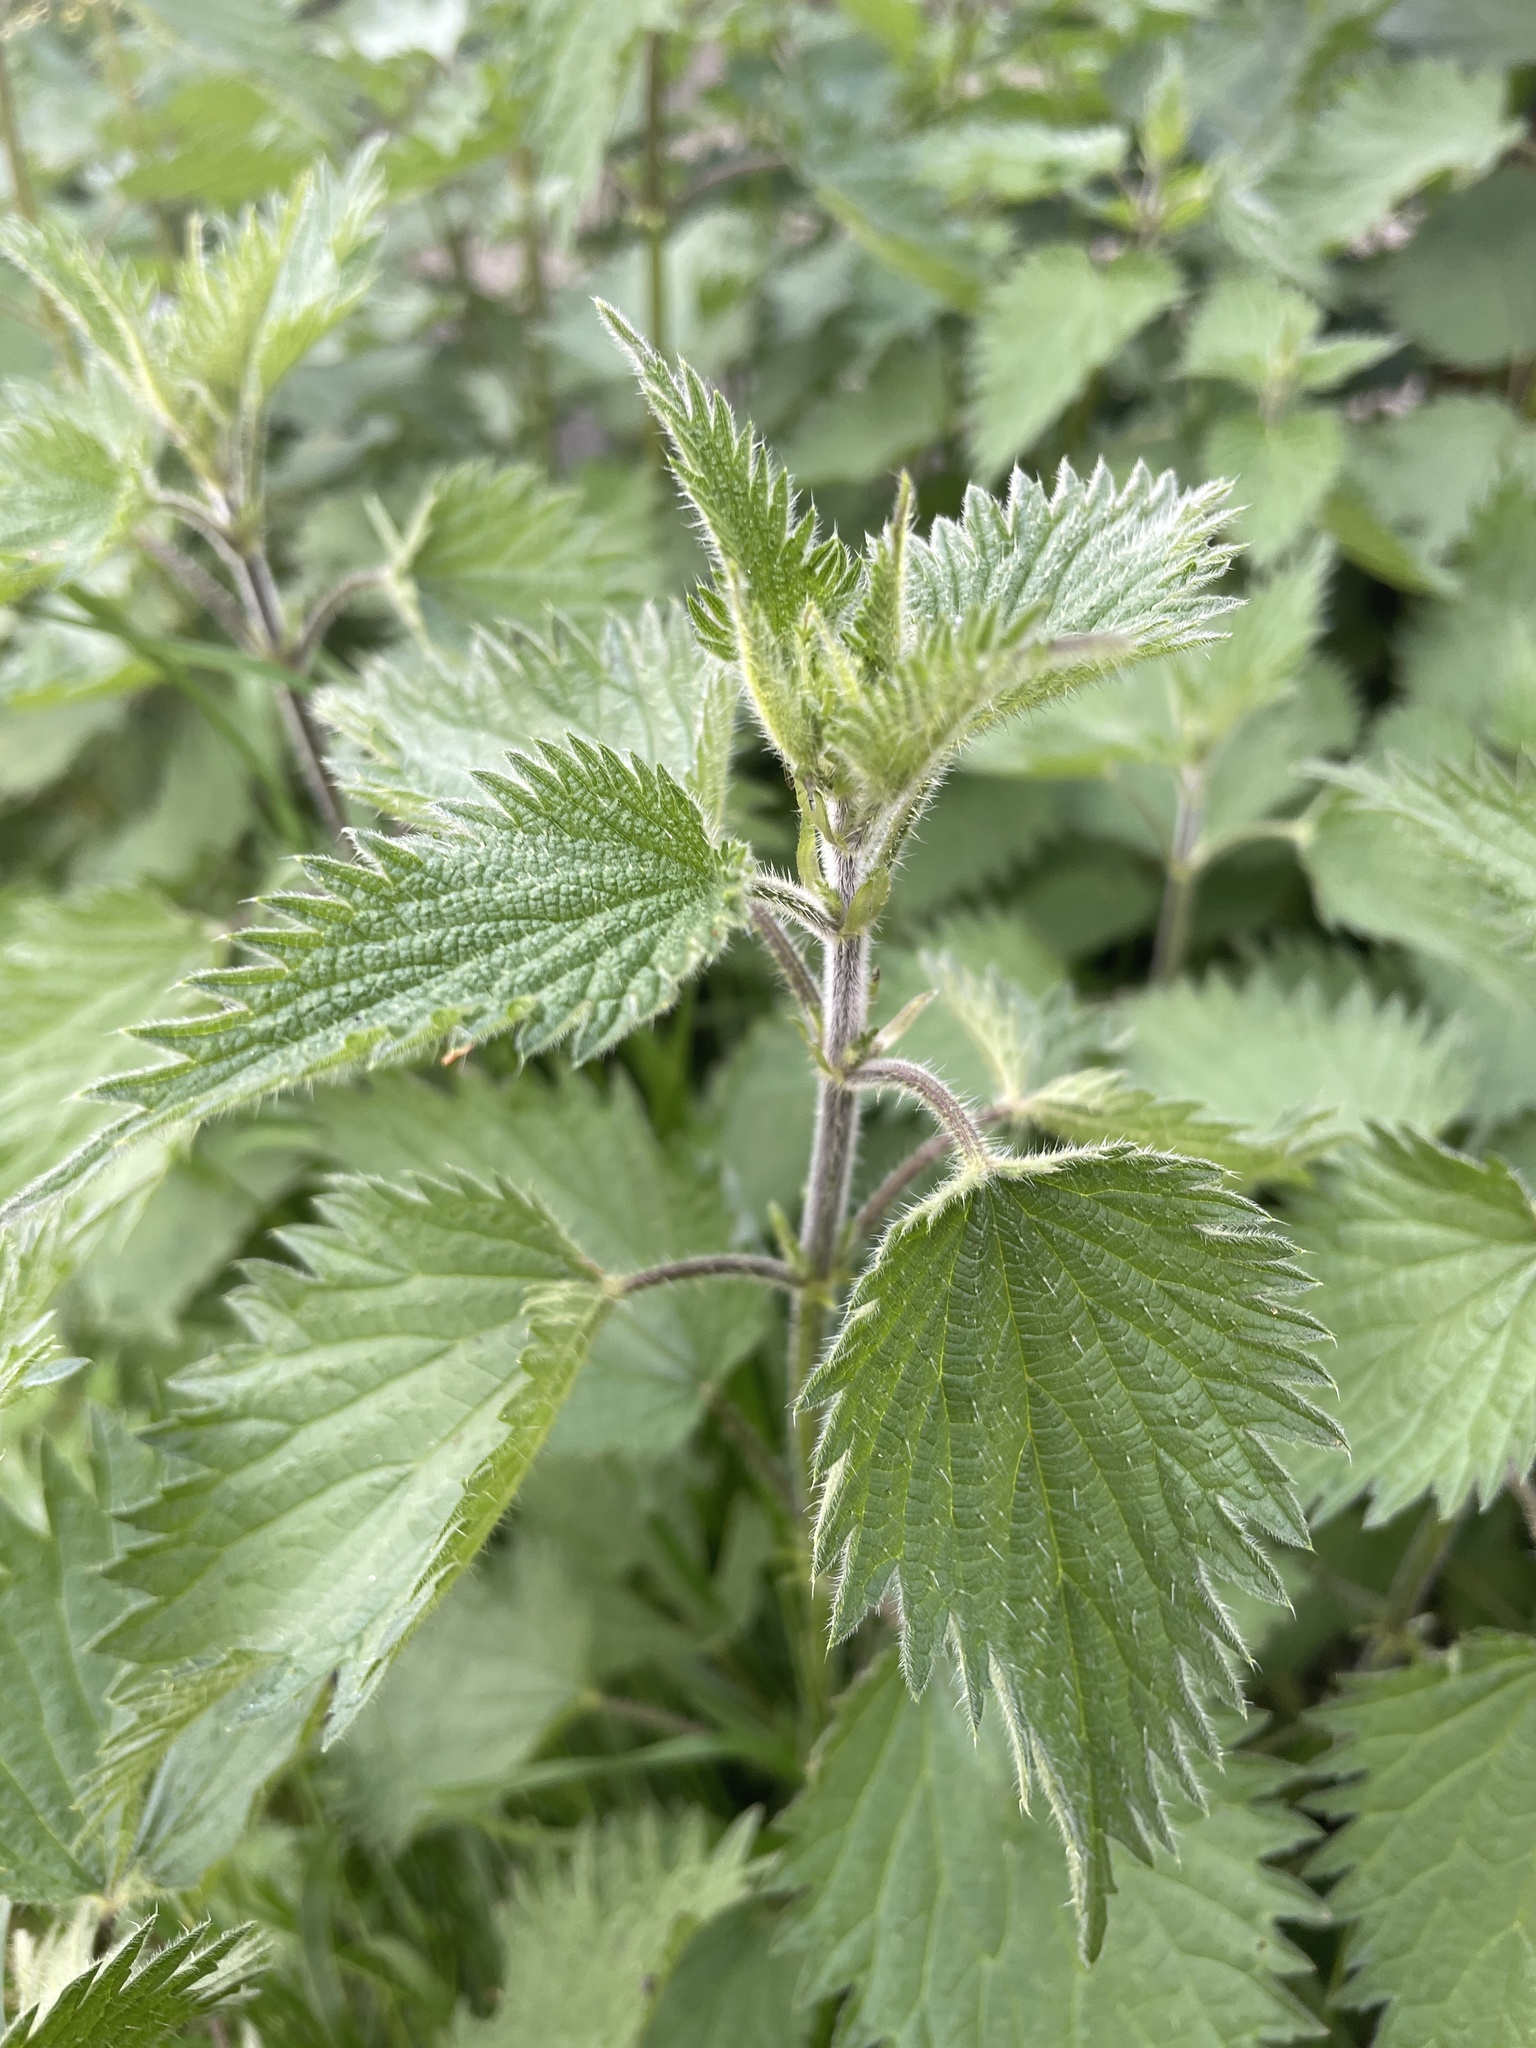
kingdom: Plantae
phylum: Tracheophyta
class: Magnoliopsida
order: Rosales
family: Urticaceae
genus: Urtica
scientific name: Urtica dioica
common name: Common nettle
